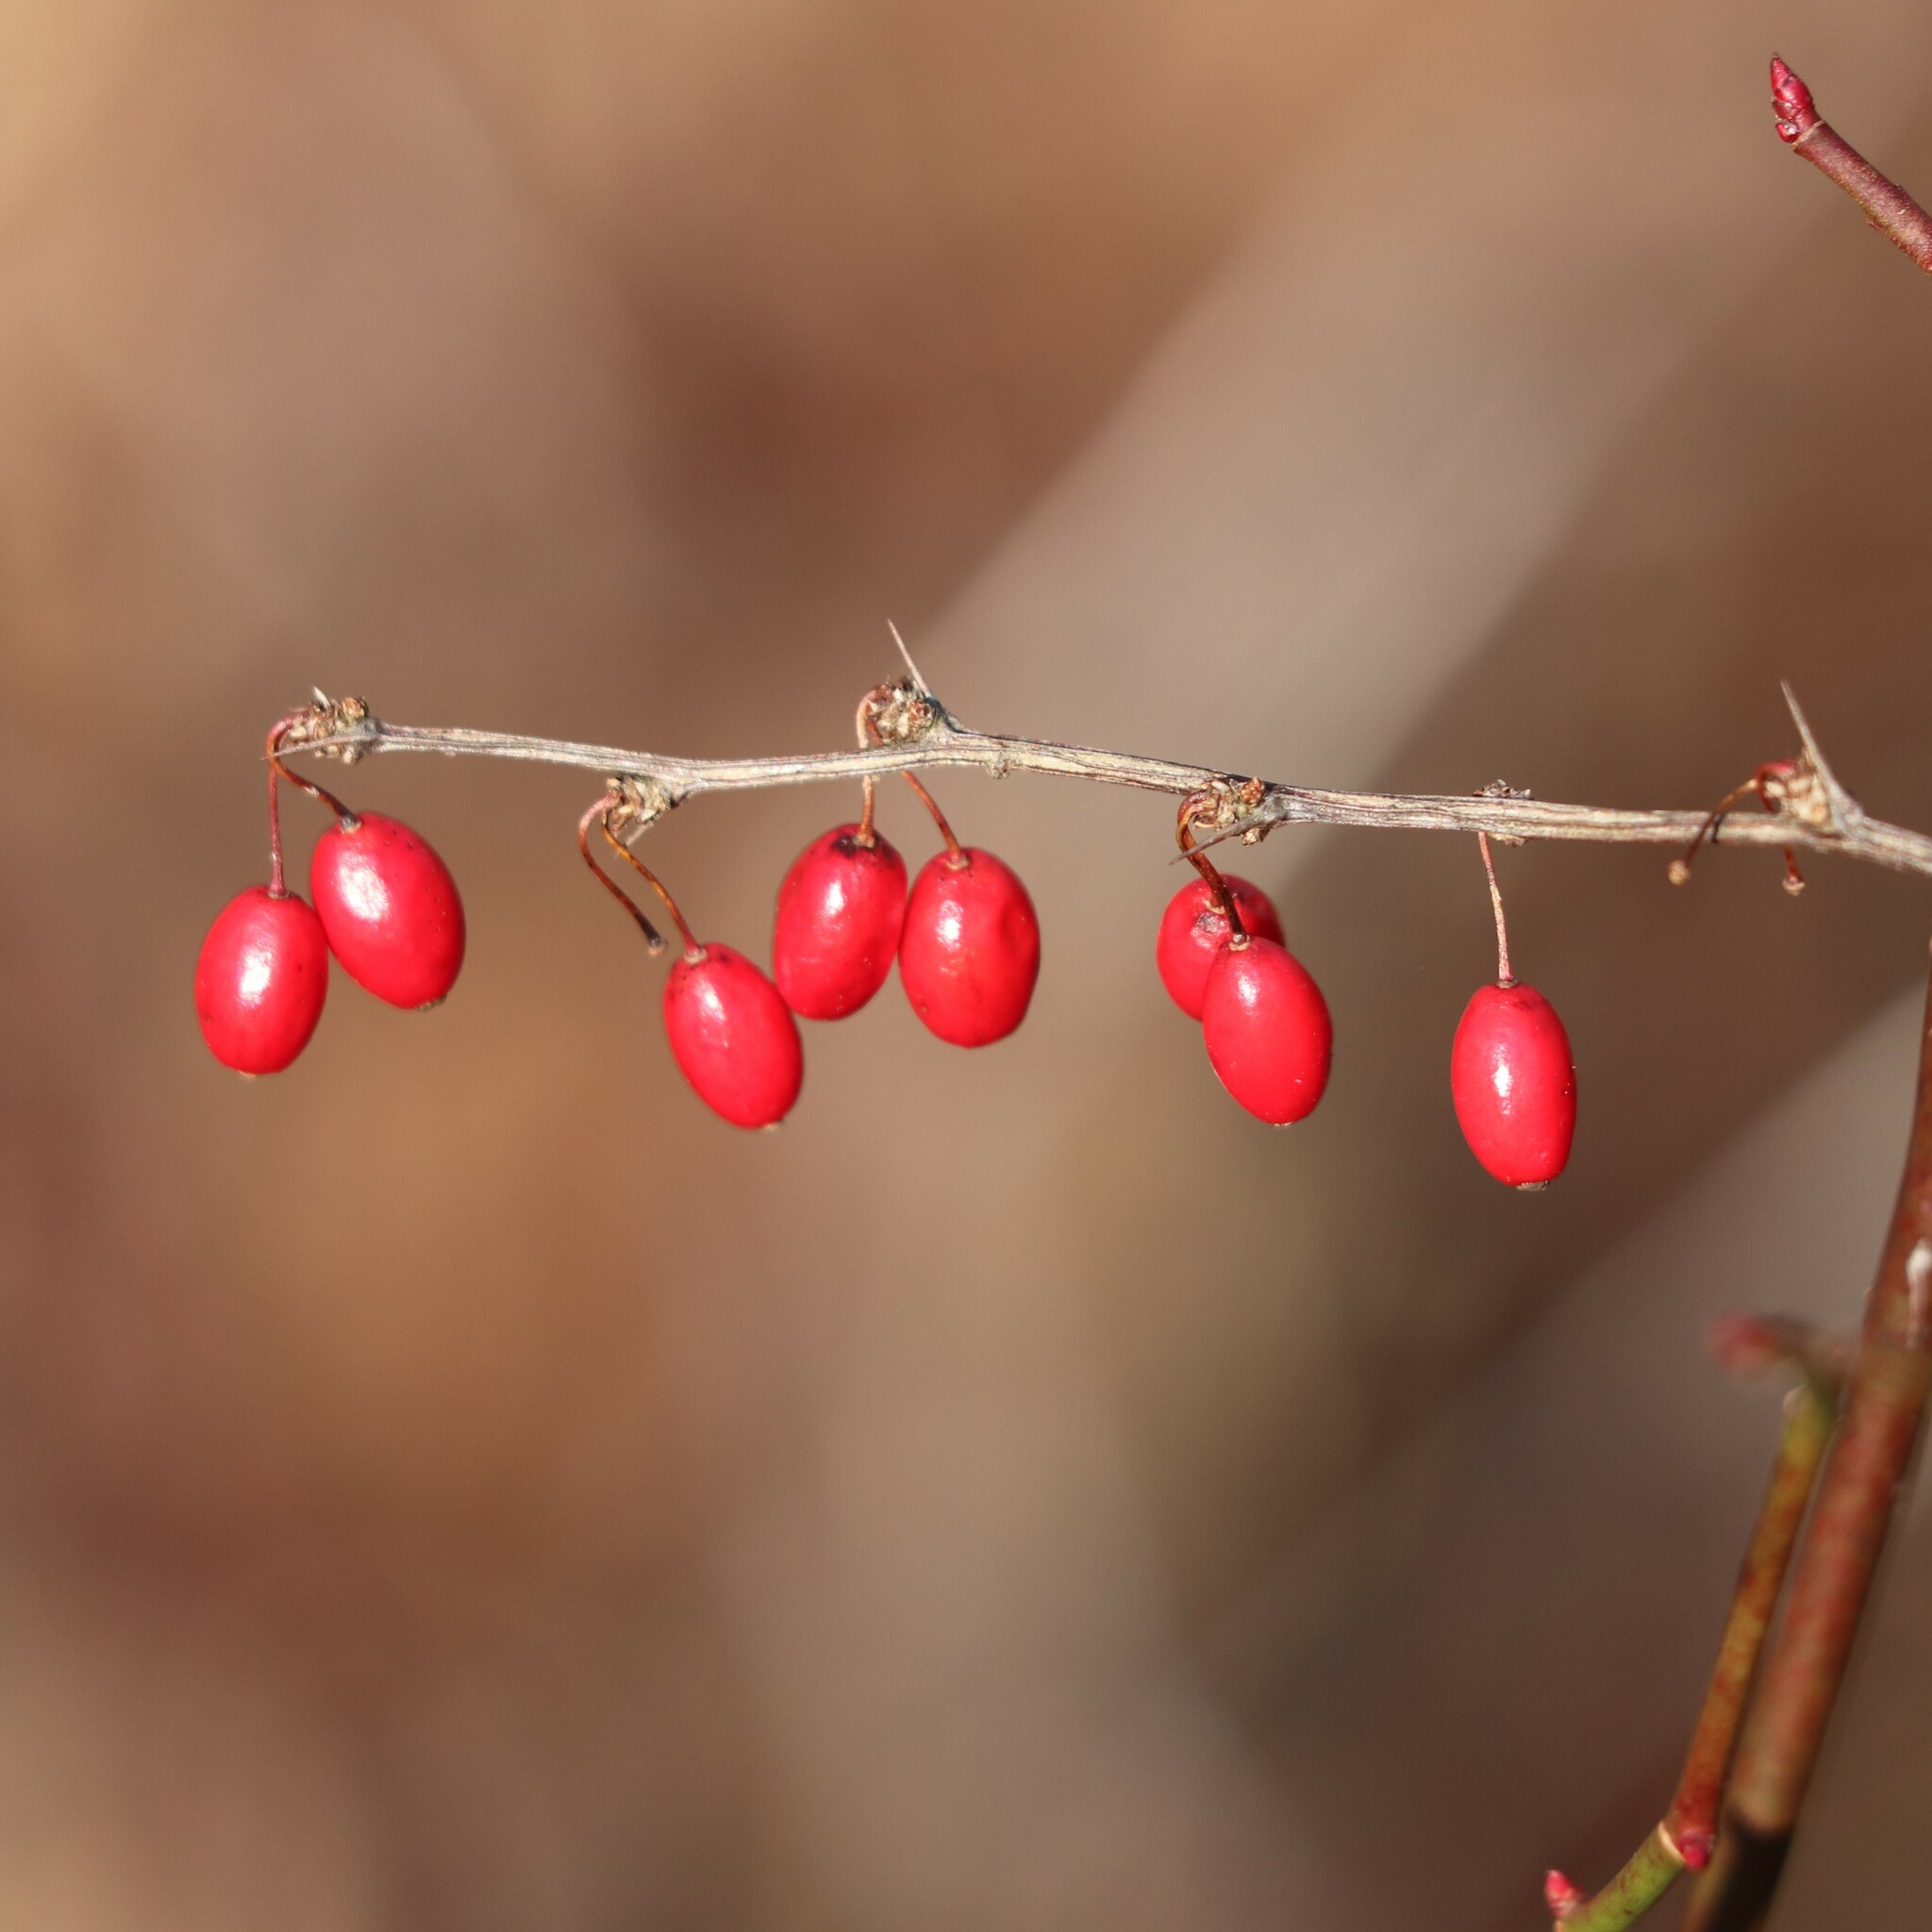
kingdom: Plantae
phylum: Tracheophyta
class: Magnoliopsida
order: Ranunculales
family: Berberidaceae
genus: Berberis
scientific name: Berberis thunbergii
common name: Japanese barberry
